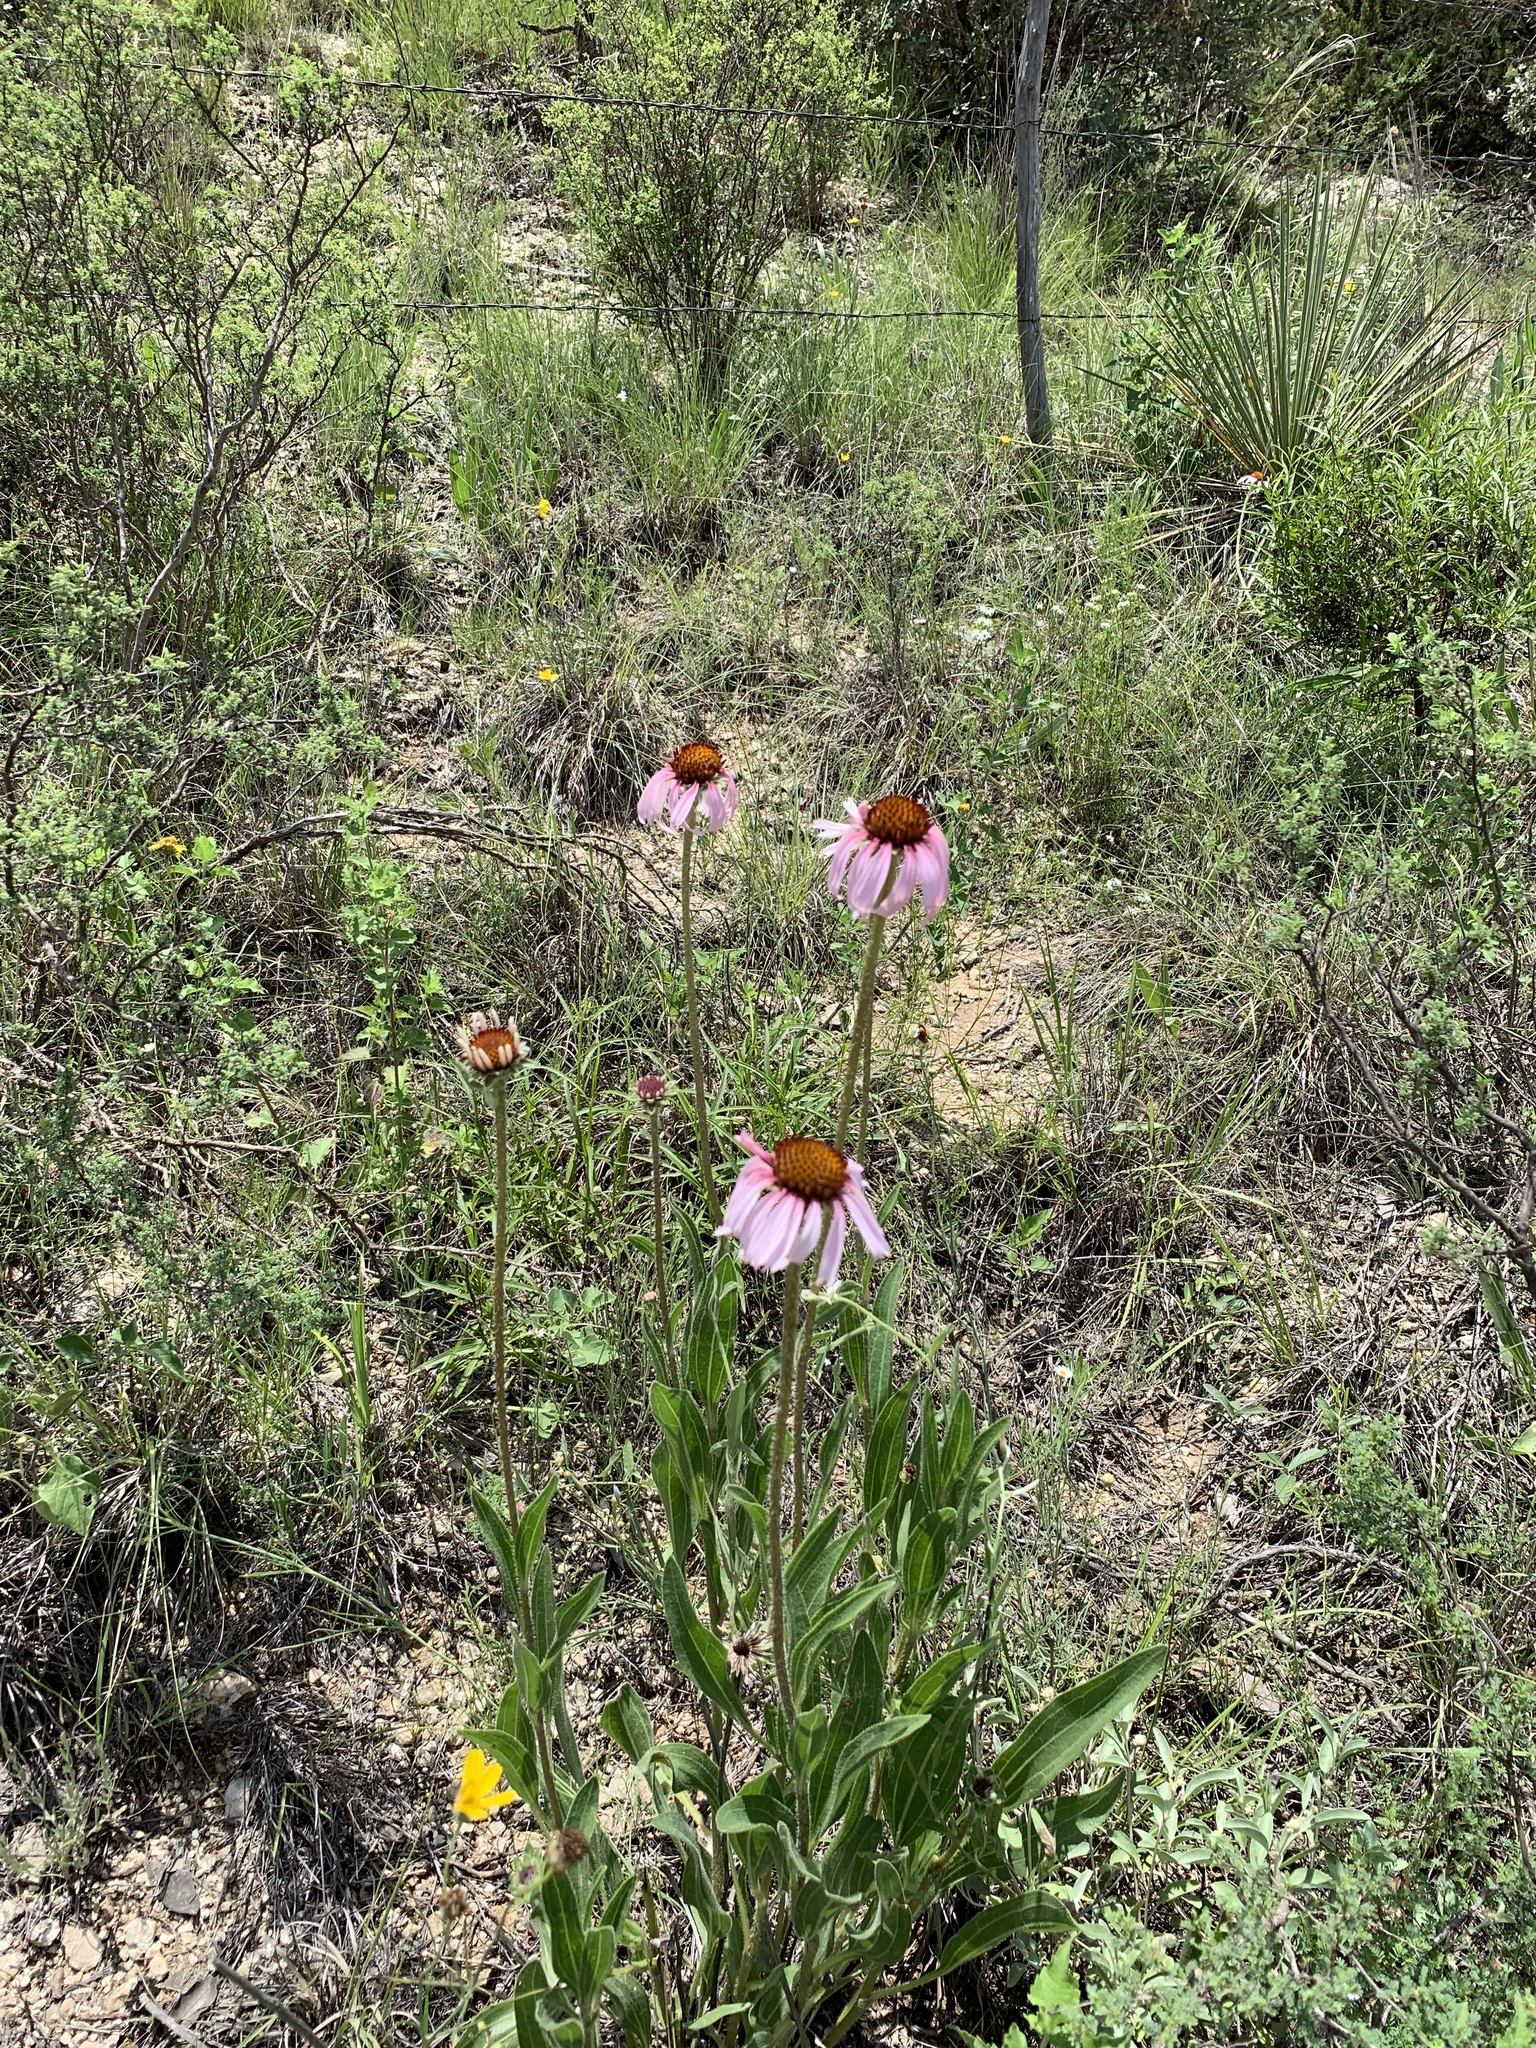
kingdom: Plantae
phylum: Tracheophyta
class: Magnoliopsida
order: Asterales
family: Asteraceae
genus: Echinacea
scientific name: Echinacea angustifolia
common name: Black-sampson echinacea
